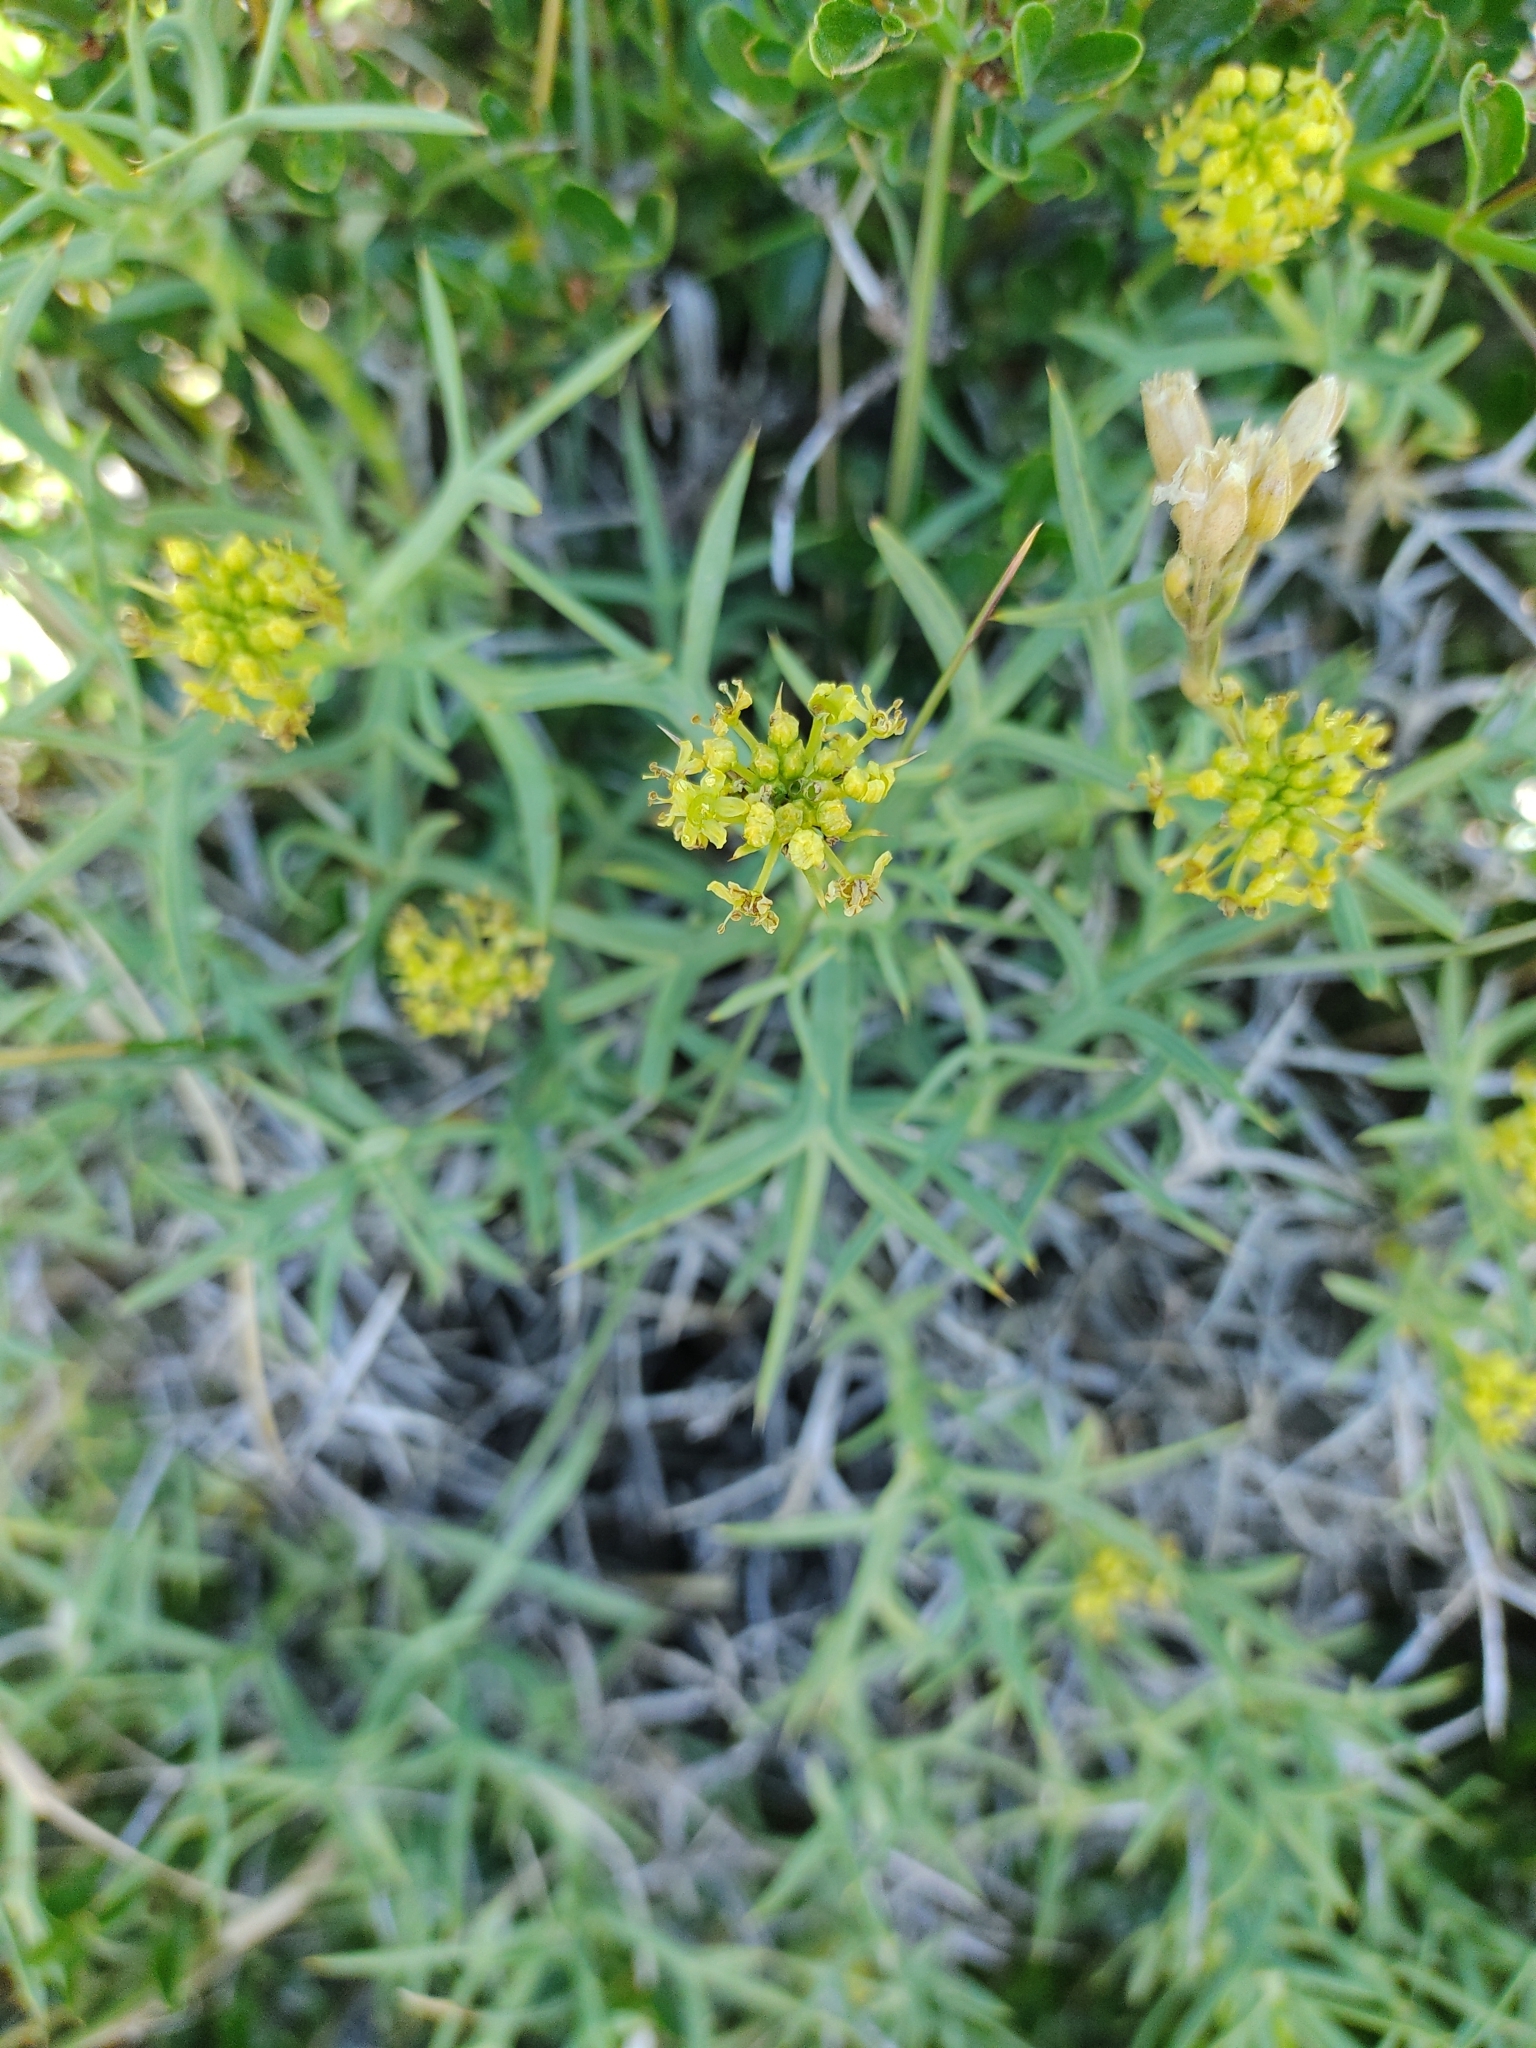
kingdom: Plantae
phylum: Tracheophyta
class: Magnoliopsida
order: Apiales
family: Apiaceae
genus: Azorella
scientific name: Azorella prolifera
